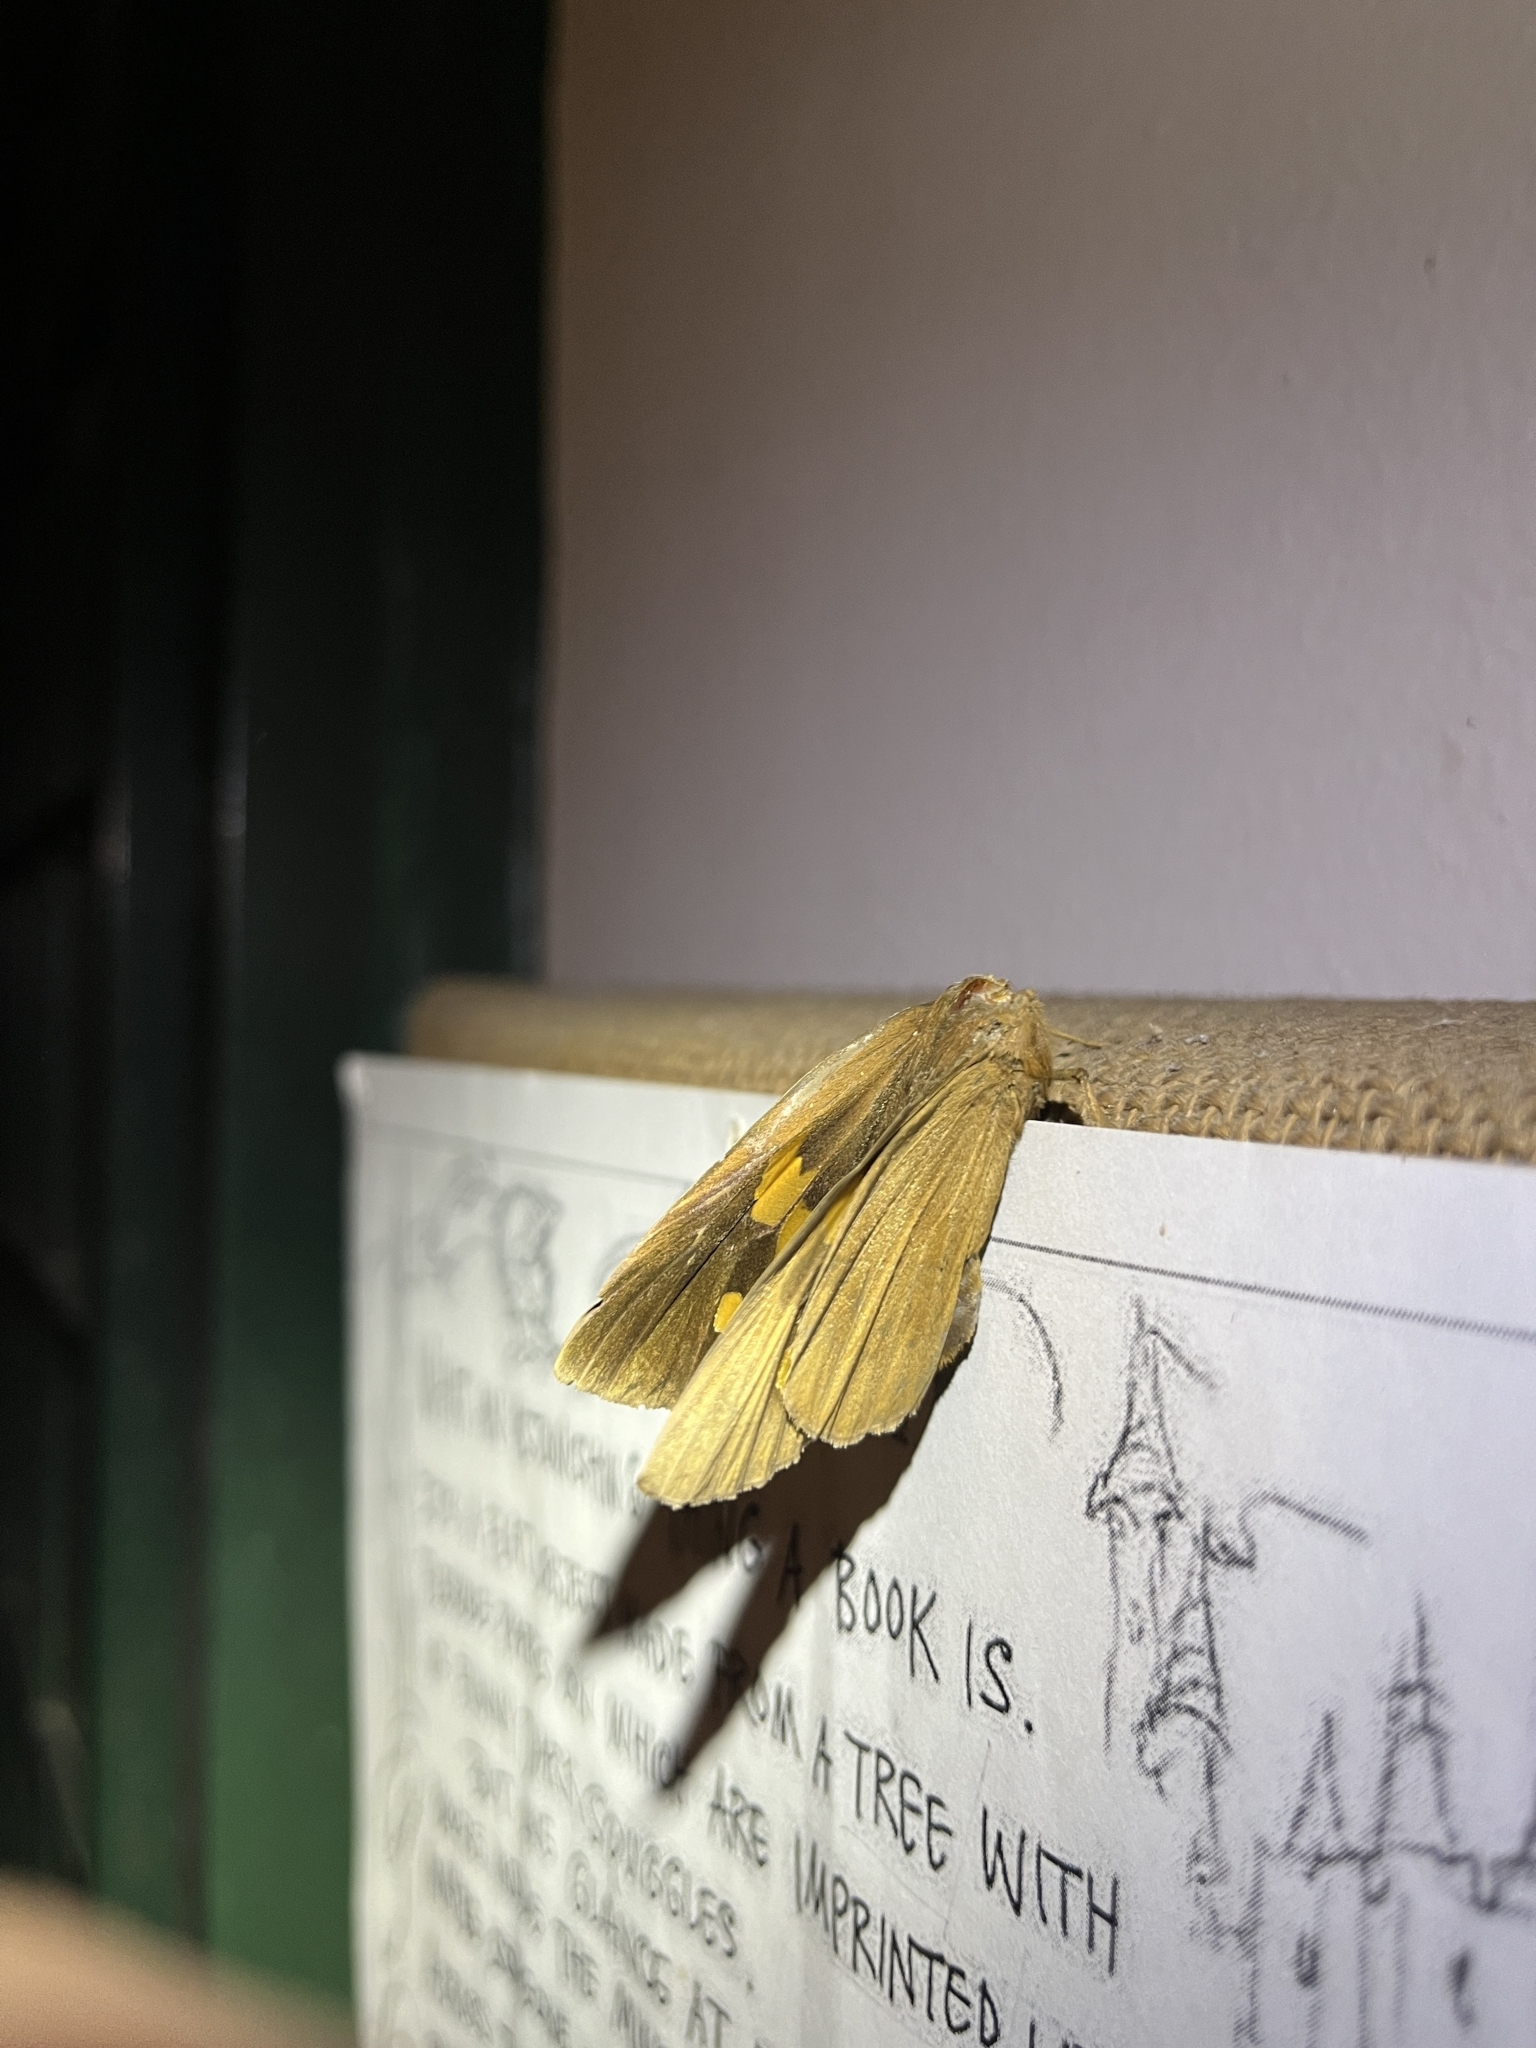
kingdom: Animalia
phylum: Arthropoda
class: Insecta
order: Lepidoptera
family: Hesperiidae
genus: Erionota
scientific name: Erionota torus
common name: Rounded palm-redeye
